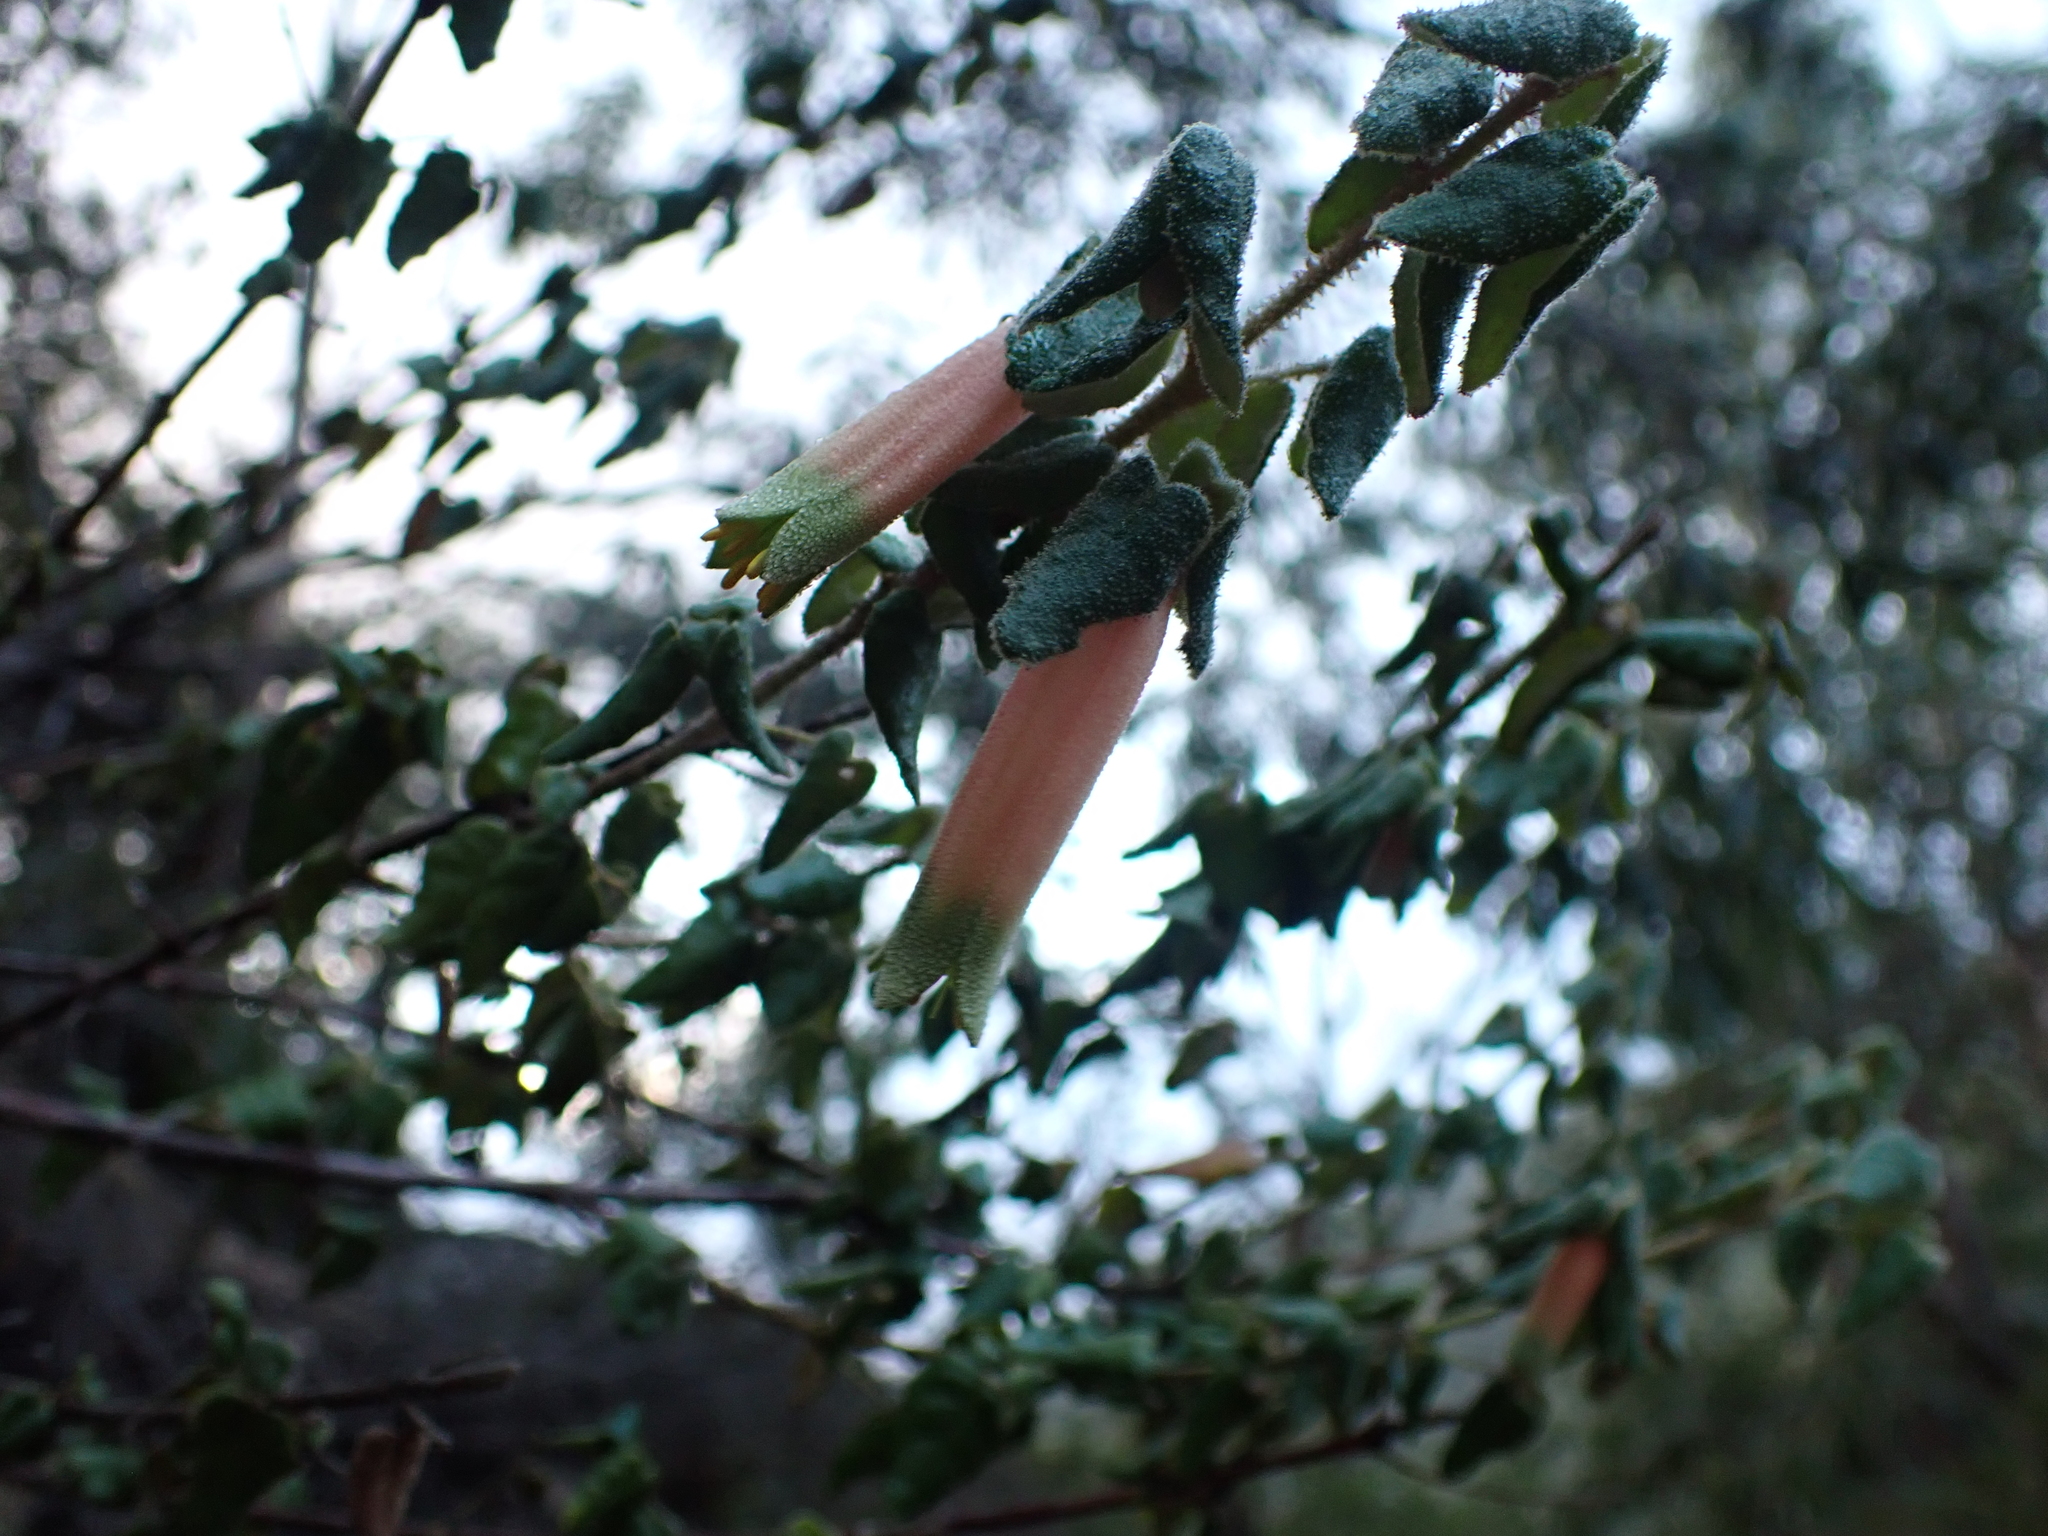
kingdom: Plantae
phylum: Tracheophyta
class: Magnoliopsida
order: Sapindales
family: Rutaceae
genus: Correa
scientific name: Correa reflexa
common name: Common correa
